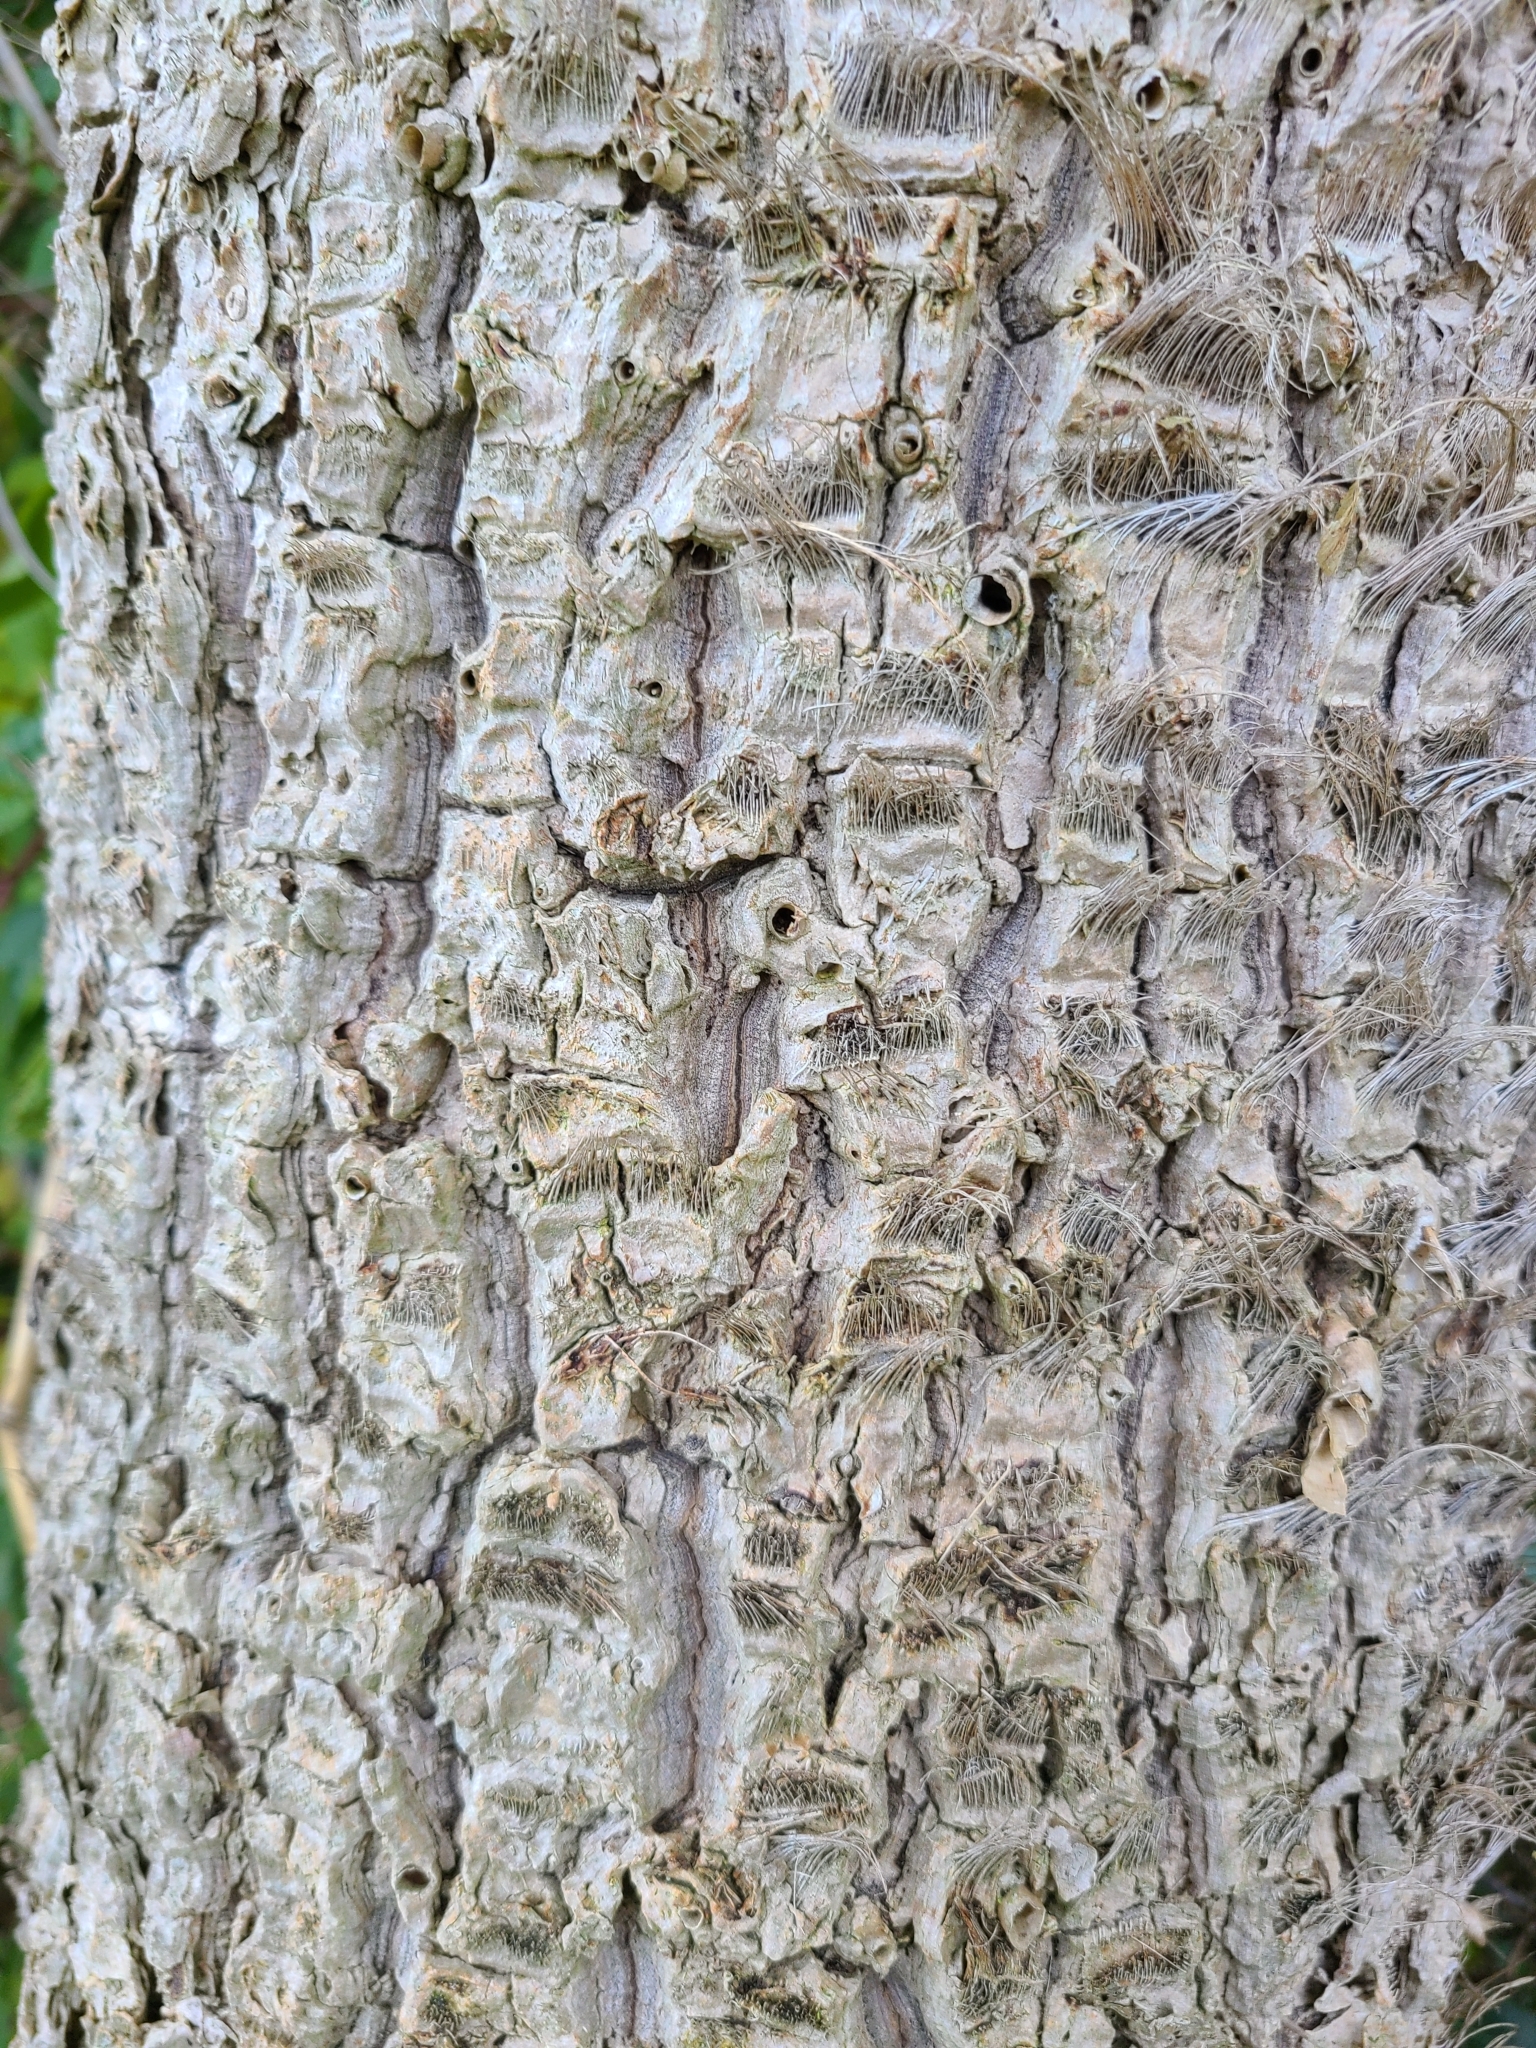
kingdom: Plantae
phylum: Tracheophyta
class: Liliopsida
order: Asparagales
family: Asparagaceae
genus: Cordyline
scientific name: Cordyline australis
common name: Cabbage-palm
